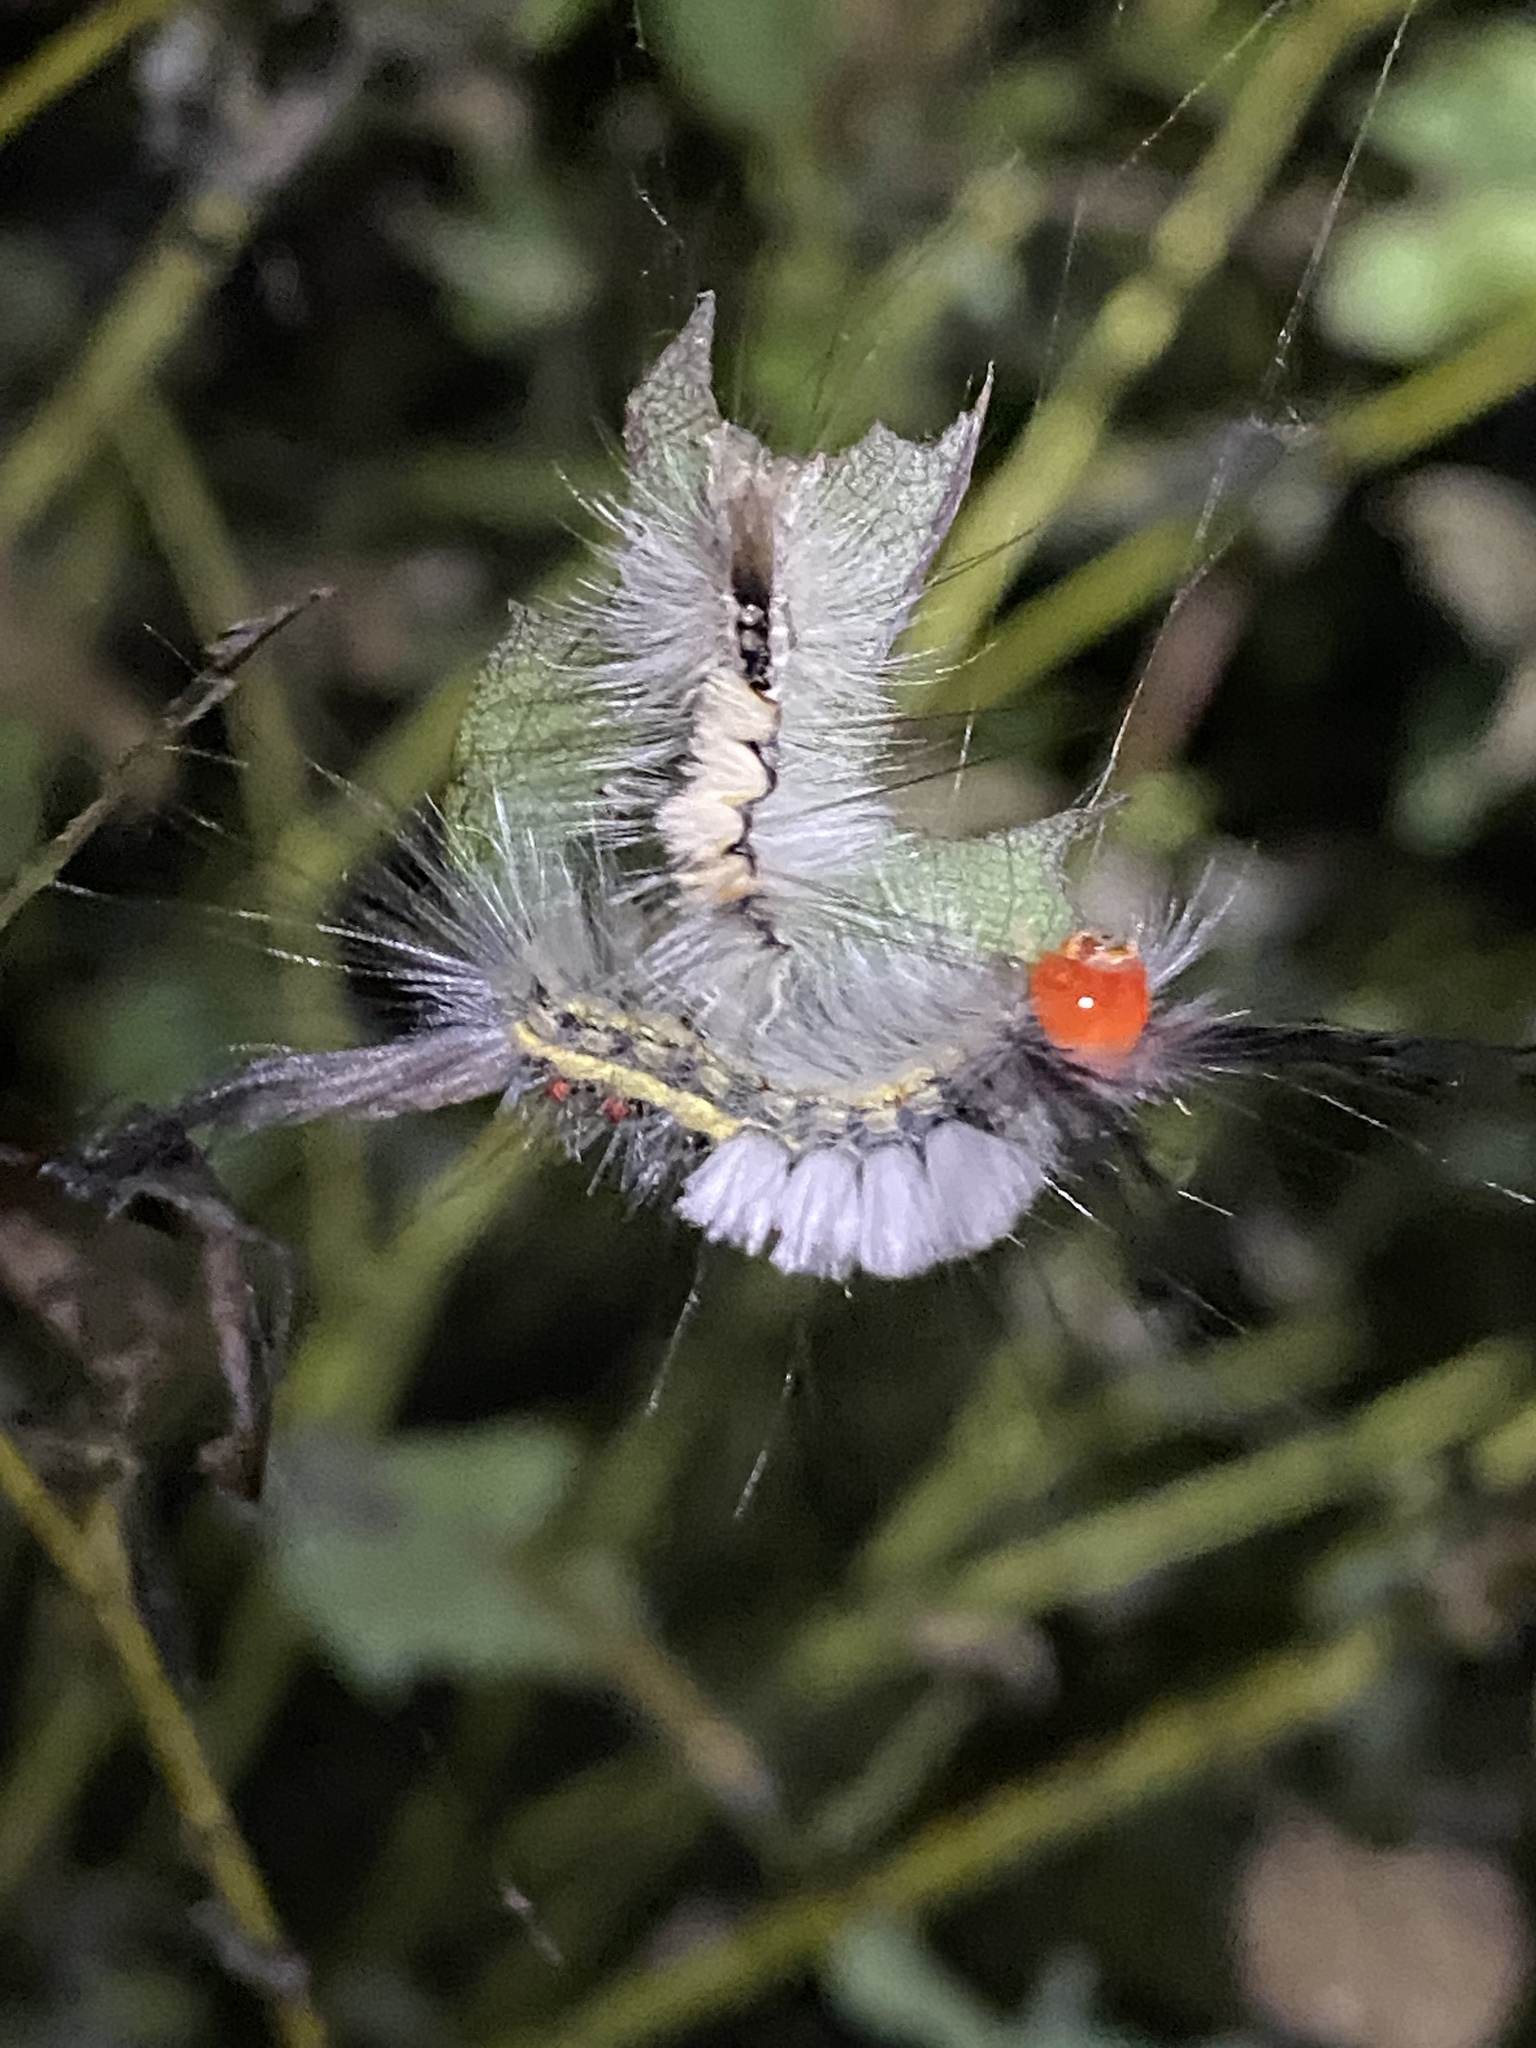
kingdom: Animalia
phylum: Arthropoda
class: Insecta
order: Lepidoptera
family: Erebidae
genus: Orgyia
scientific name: Orgyia leucostigma
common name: White-marked tussock moth
